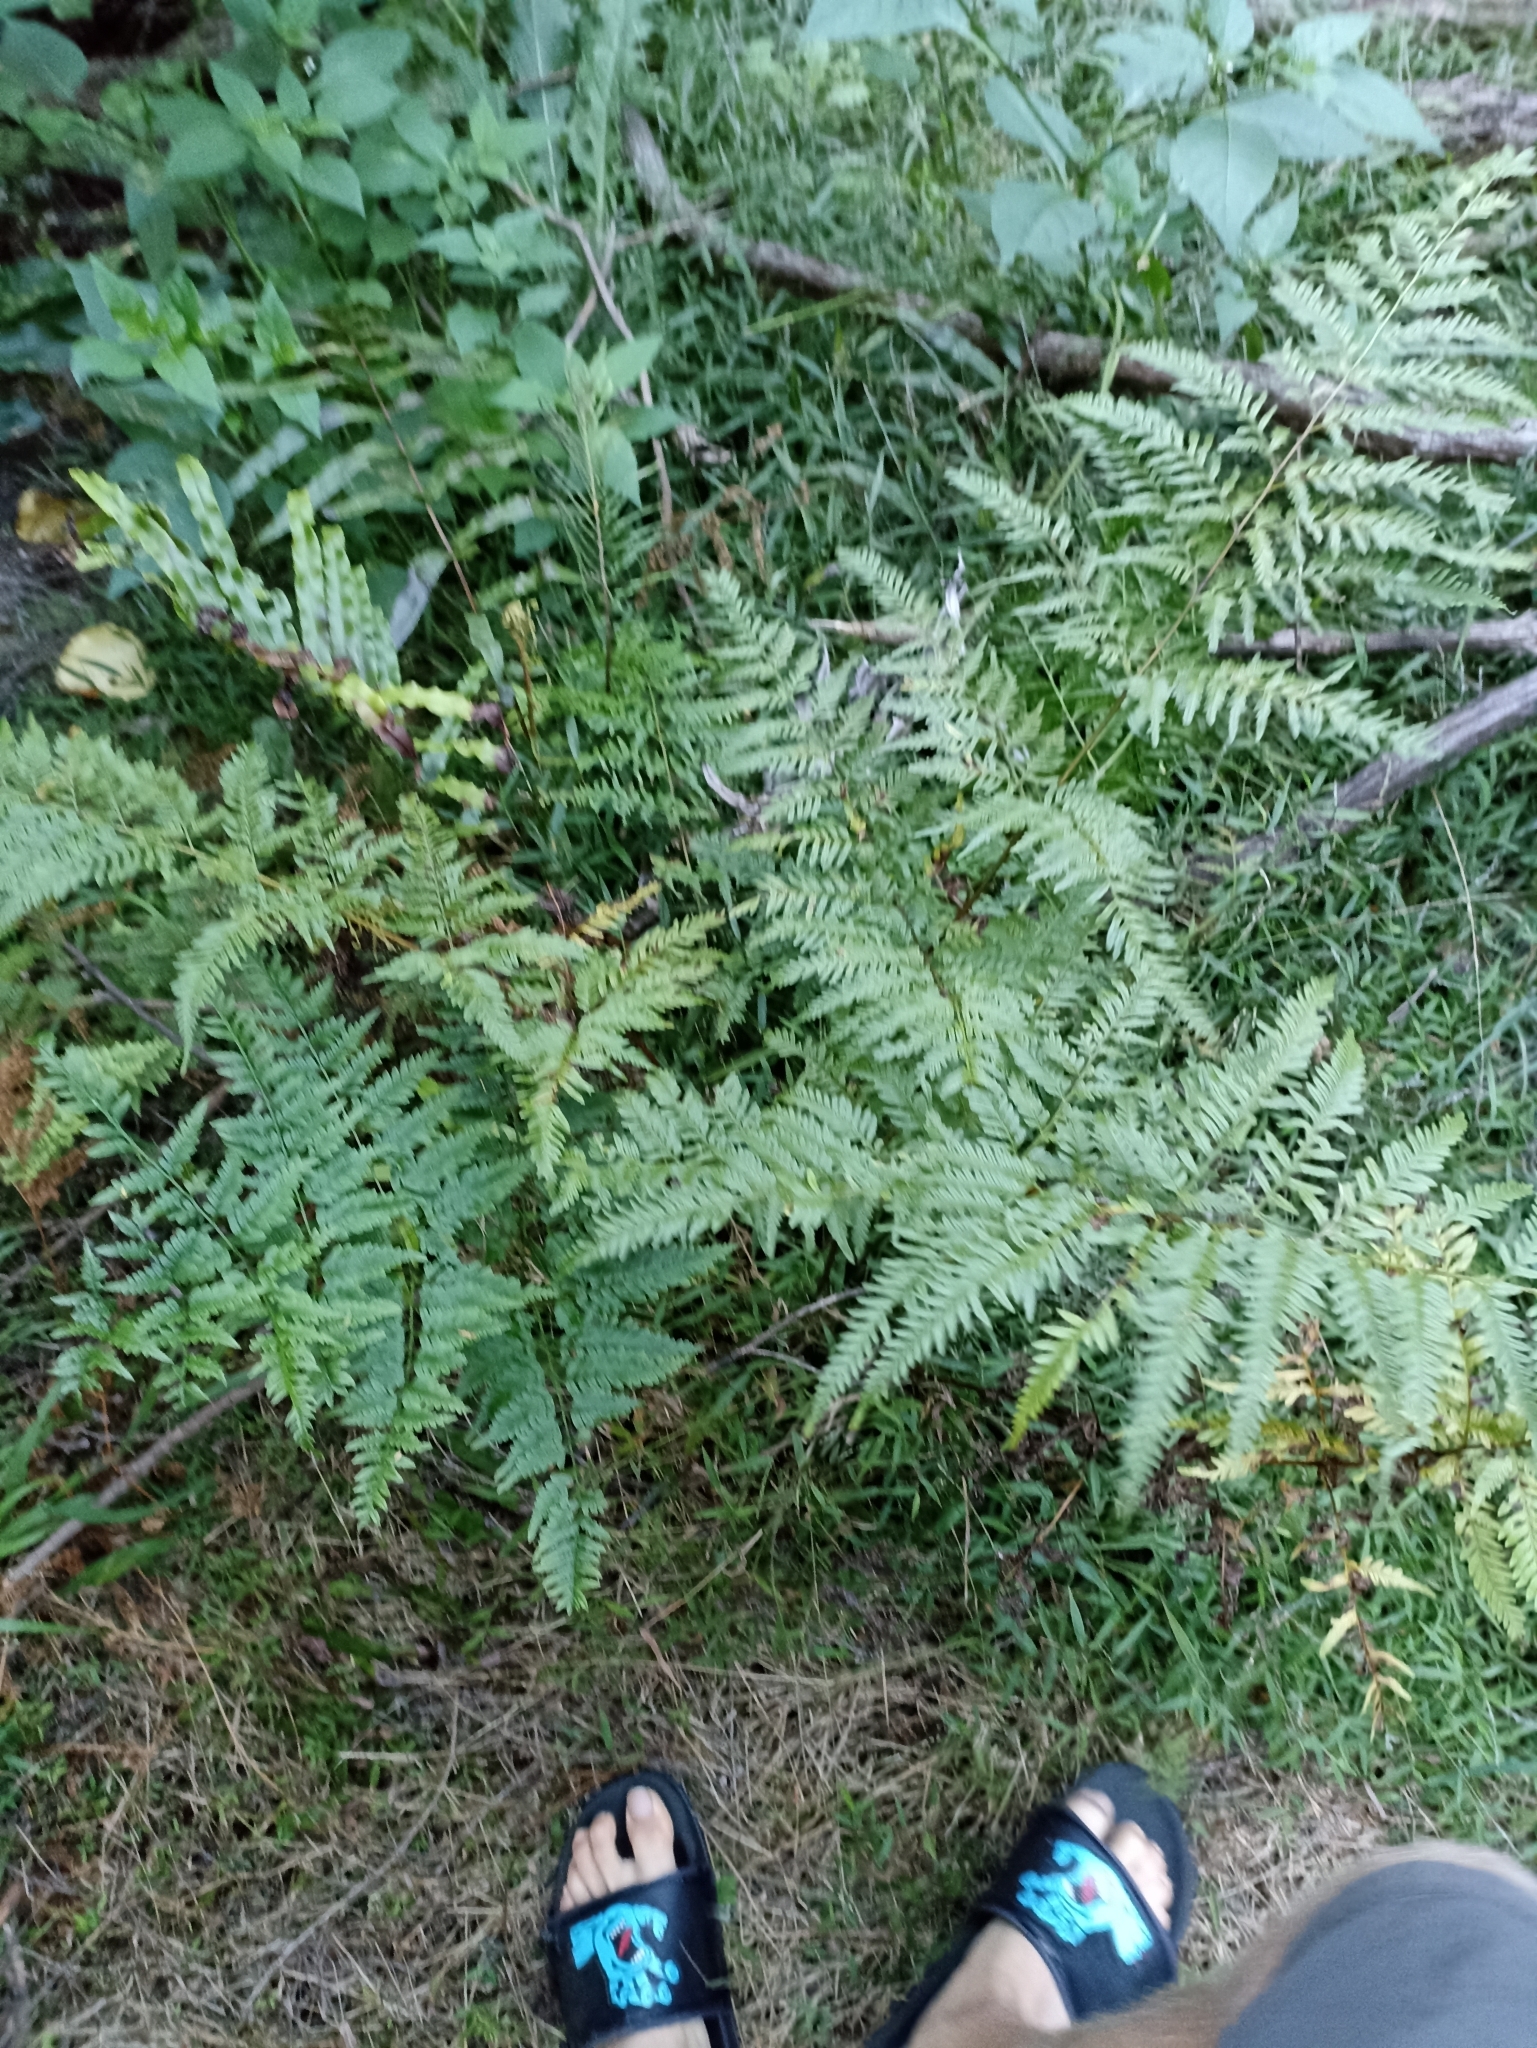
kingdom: Plantae
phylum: Tracheophyta
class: Polypodiopsida
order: Polypodiales
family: Pteridaceae
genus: Pteris
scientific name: Pteris tremula
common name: Australian brake
